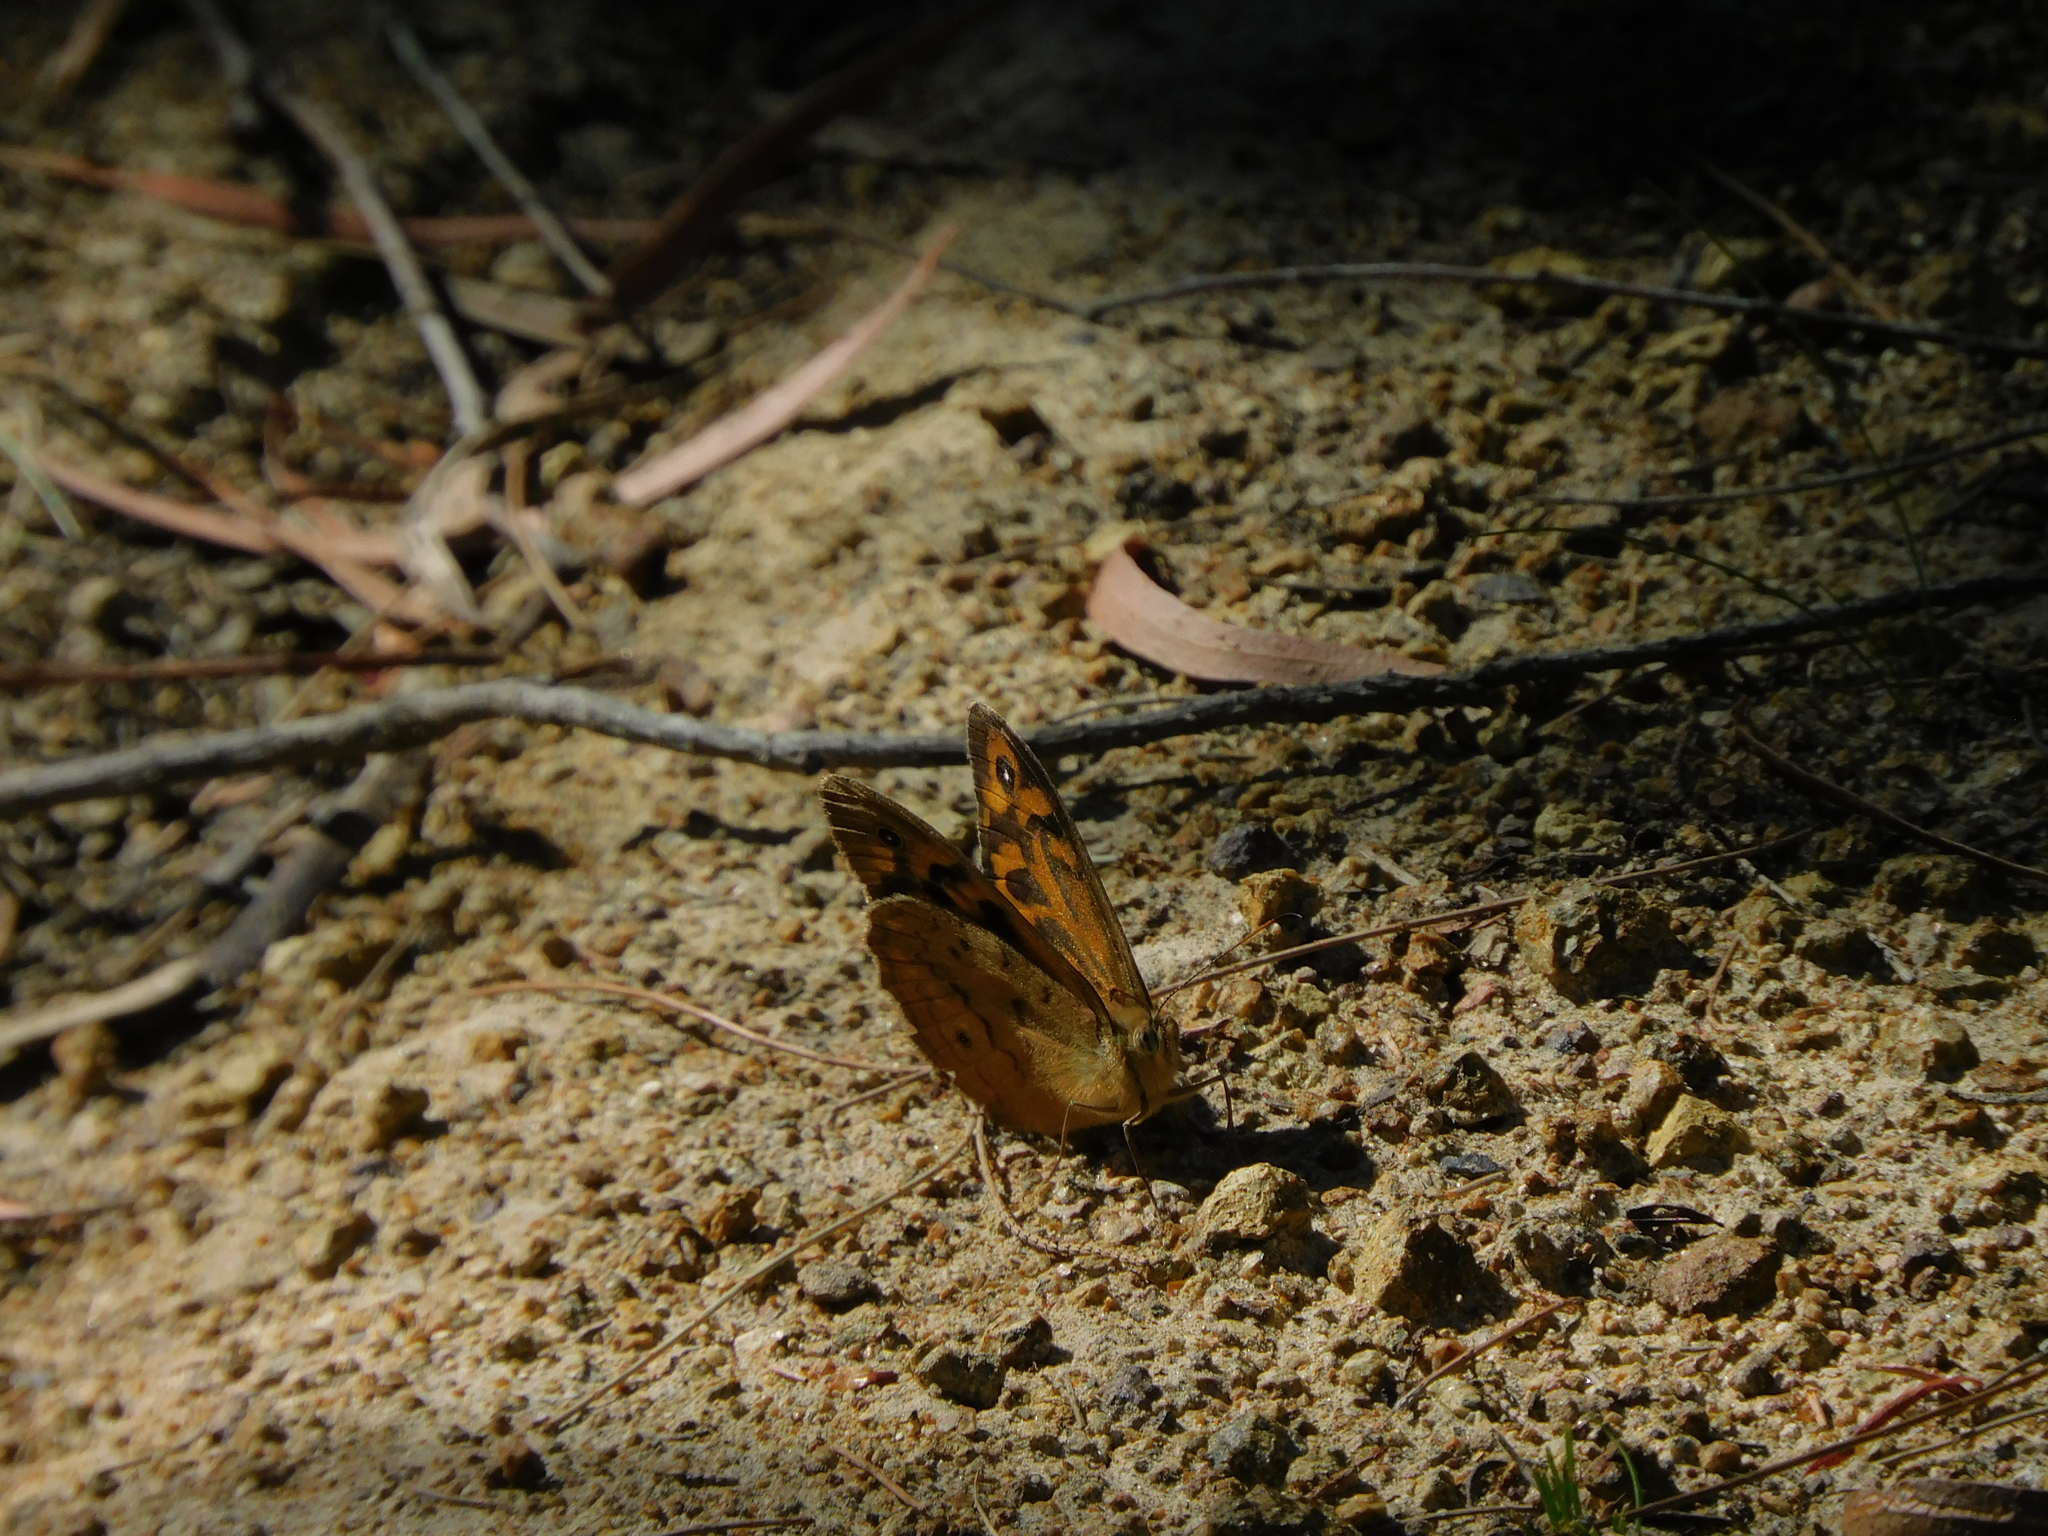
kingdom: Animalia
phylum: Arthropoda
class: Insecta
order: Lepidoptera
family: Nymphalidae
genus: Heteronympha
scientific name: Heteronympha merope
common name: Common brown
